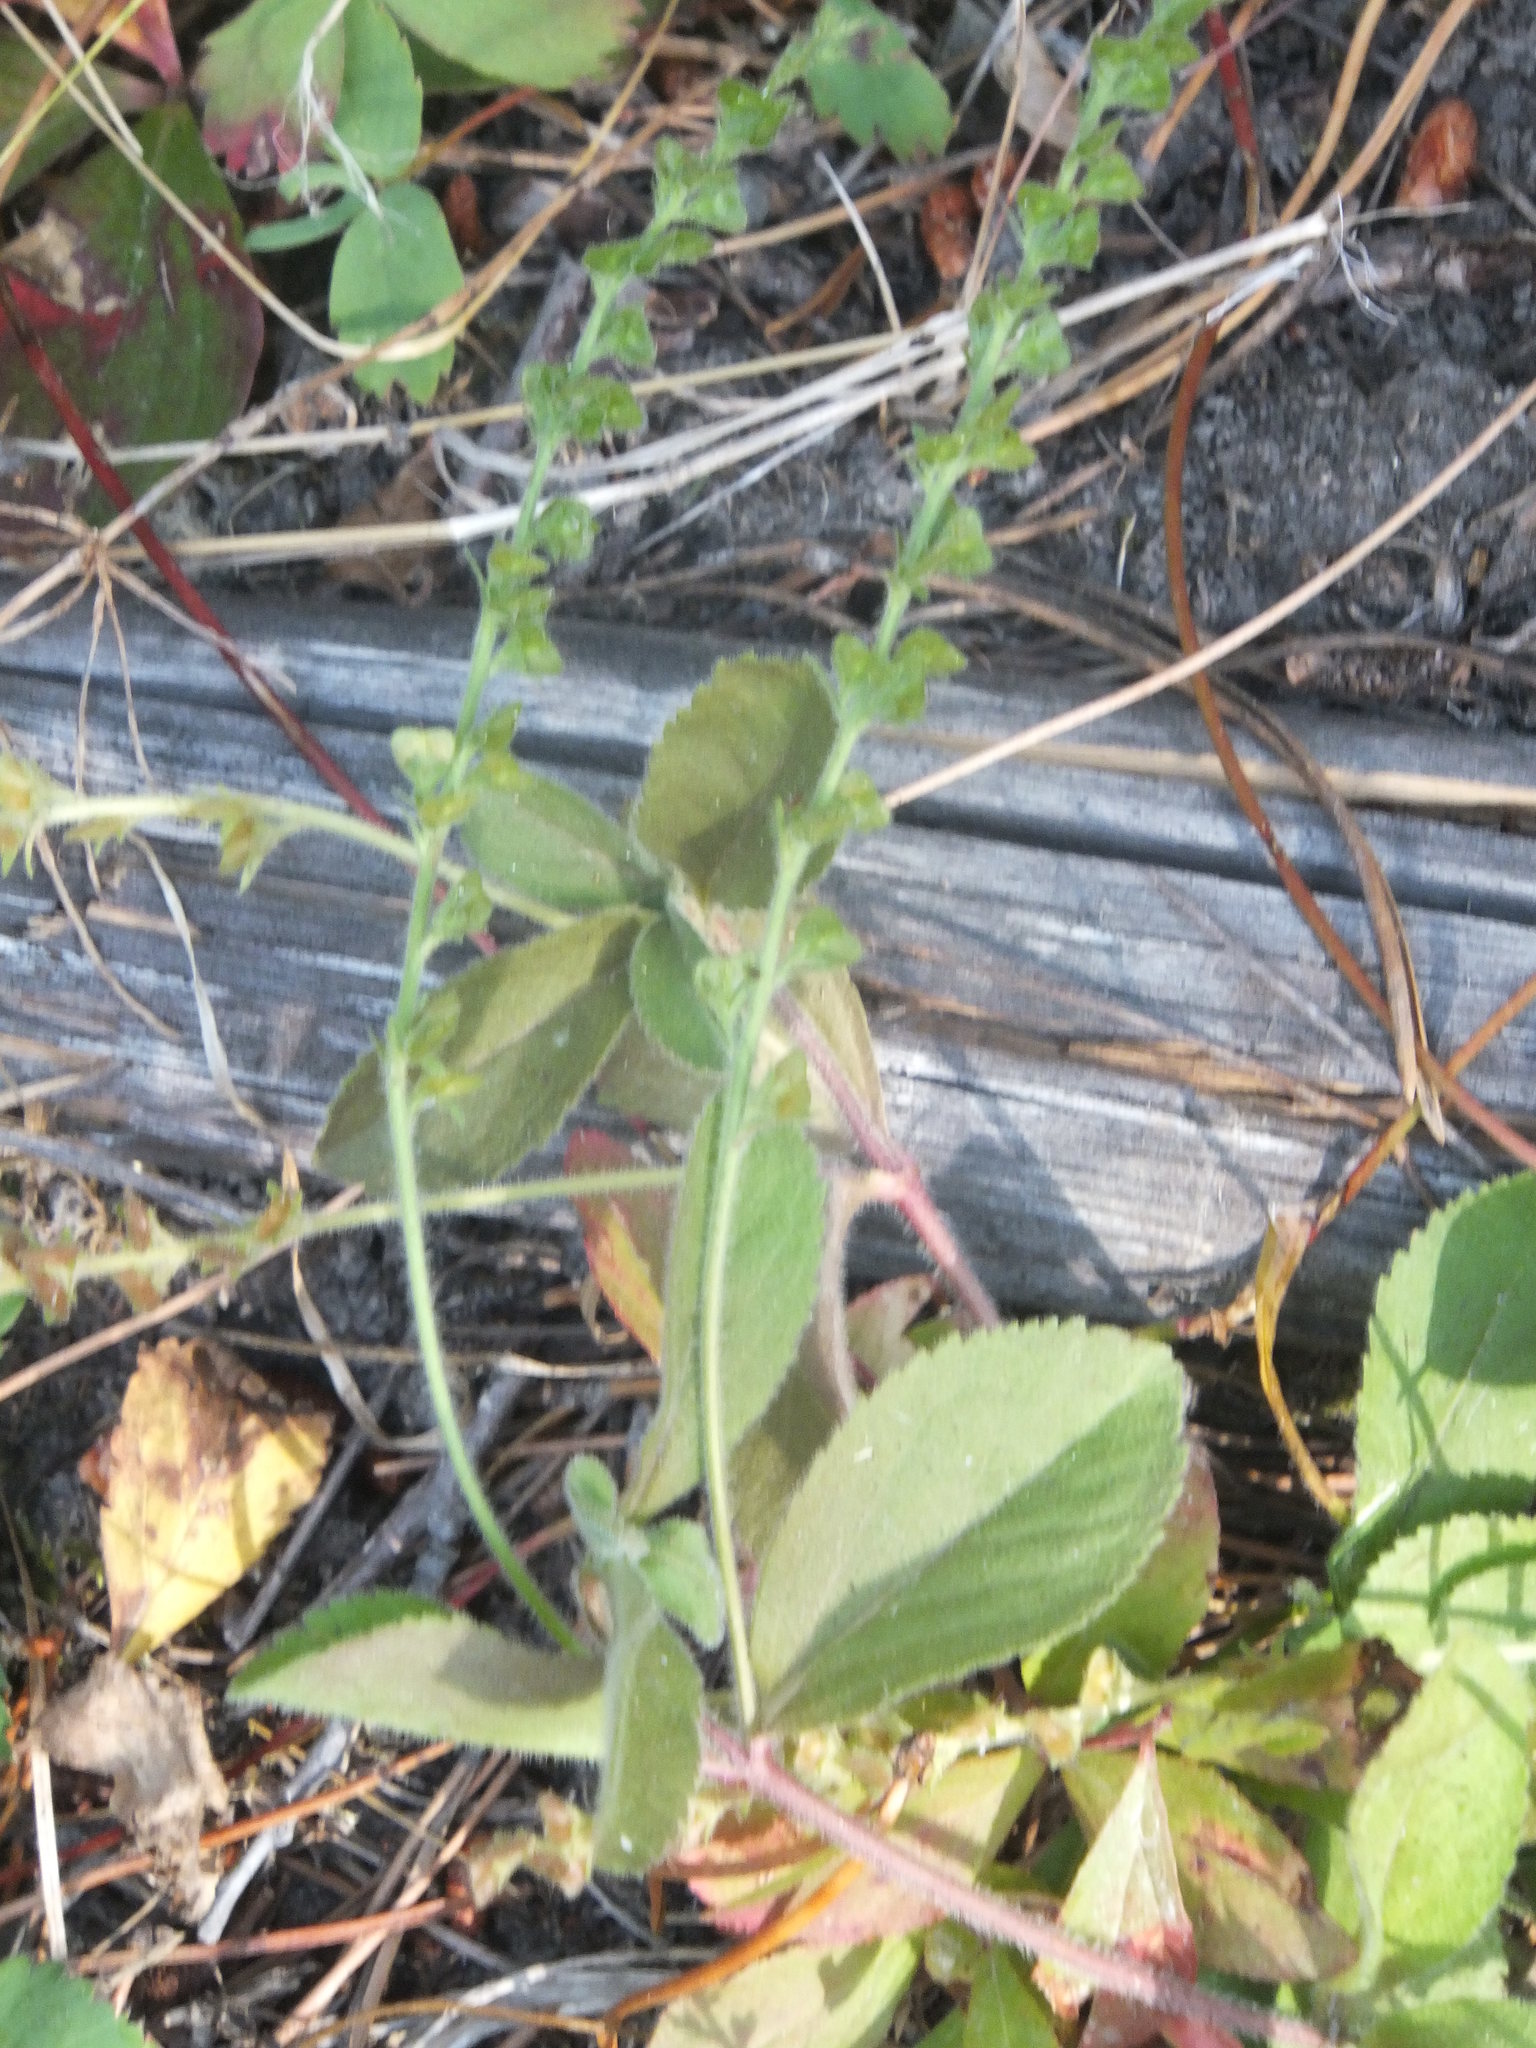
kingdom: Plantae
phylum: Tracheophyta
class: Magnoliopsida
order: Lamiales
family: Plantaginaceae
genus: Veronica
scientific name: Veronica officinalis
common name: Common speedwell
